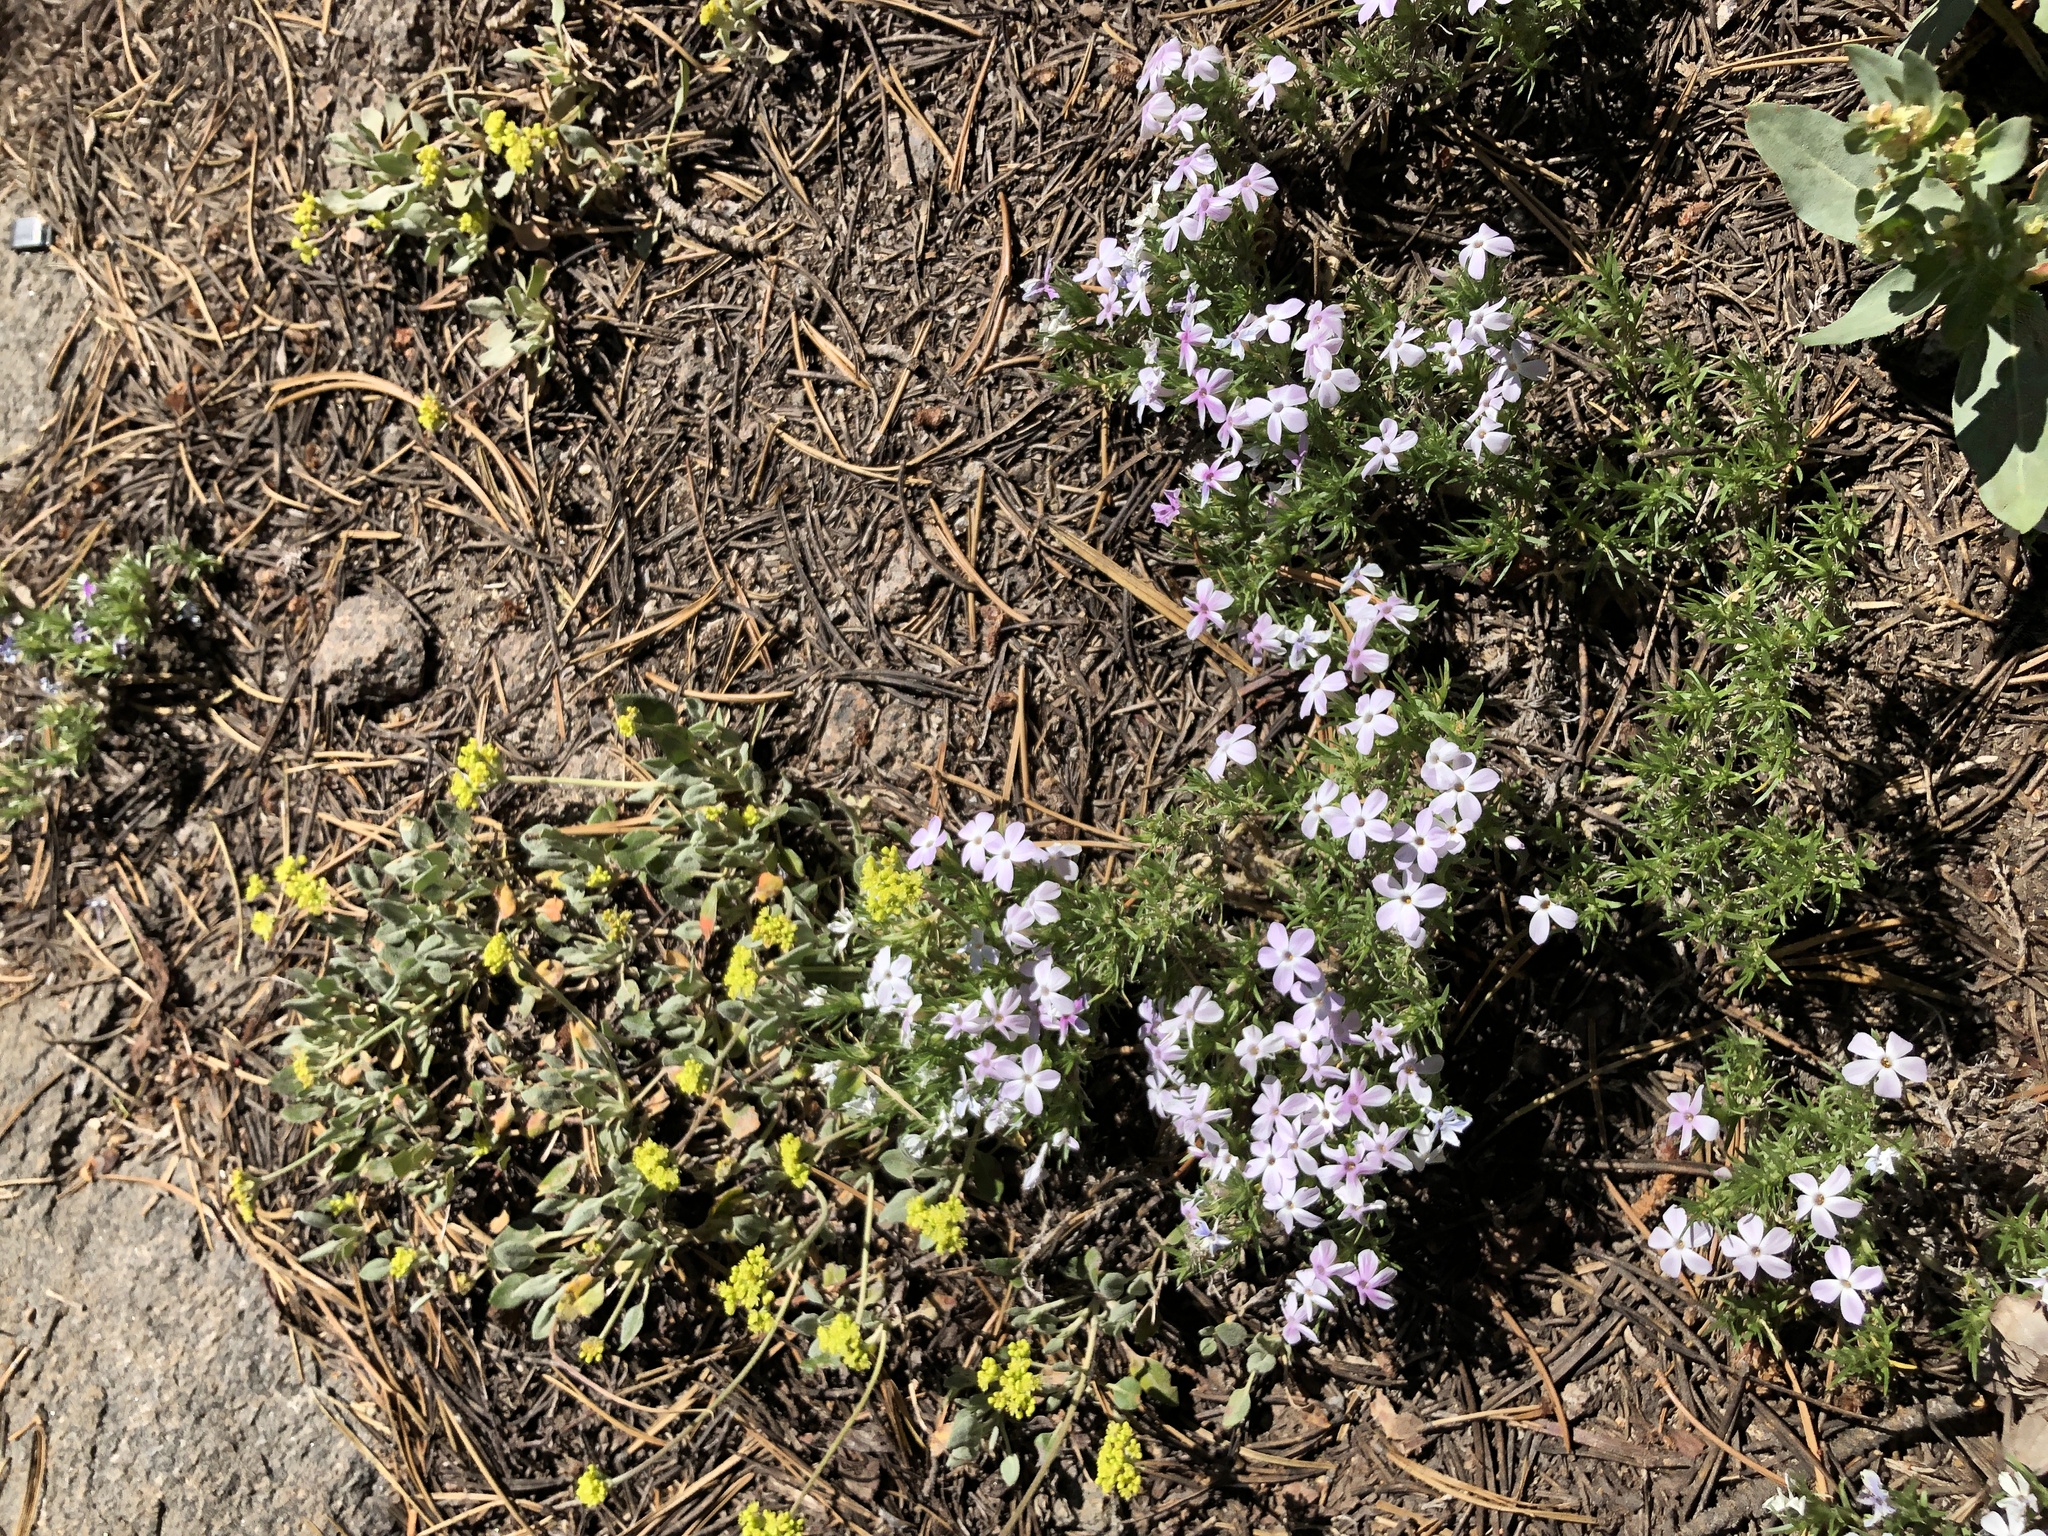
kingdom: Plantae
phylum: Tracheophyta
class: Magnoliopsida
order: Ericales
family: Polemoniaceae
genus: Phlox
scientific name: Phlox diffusa
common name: Mat phlox
